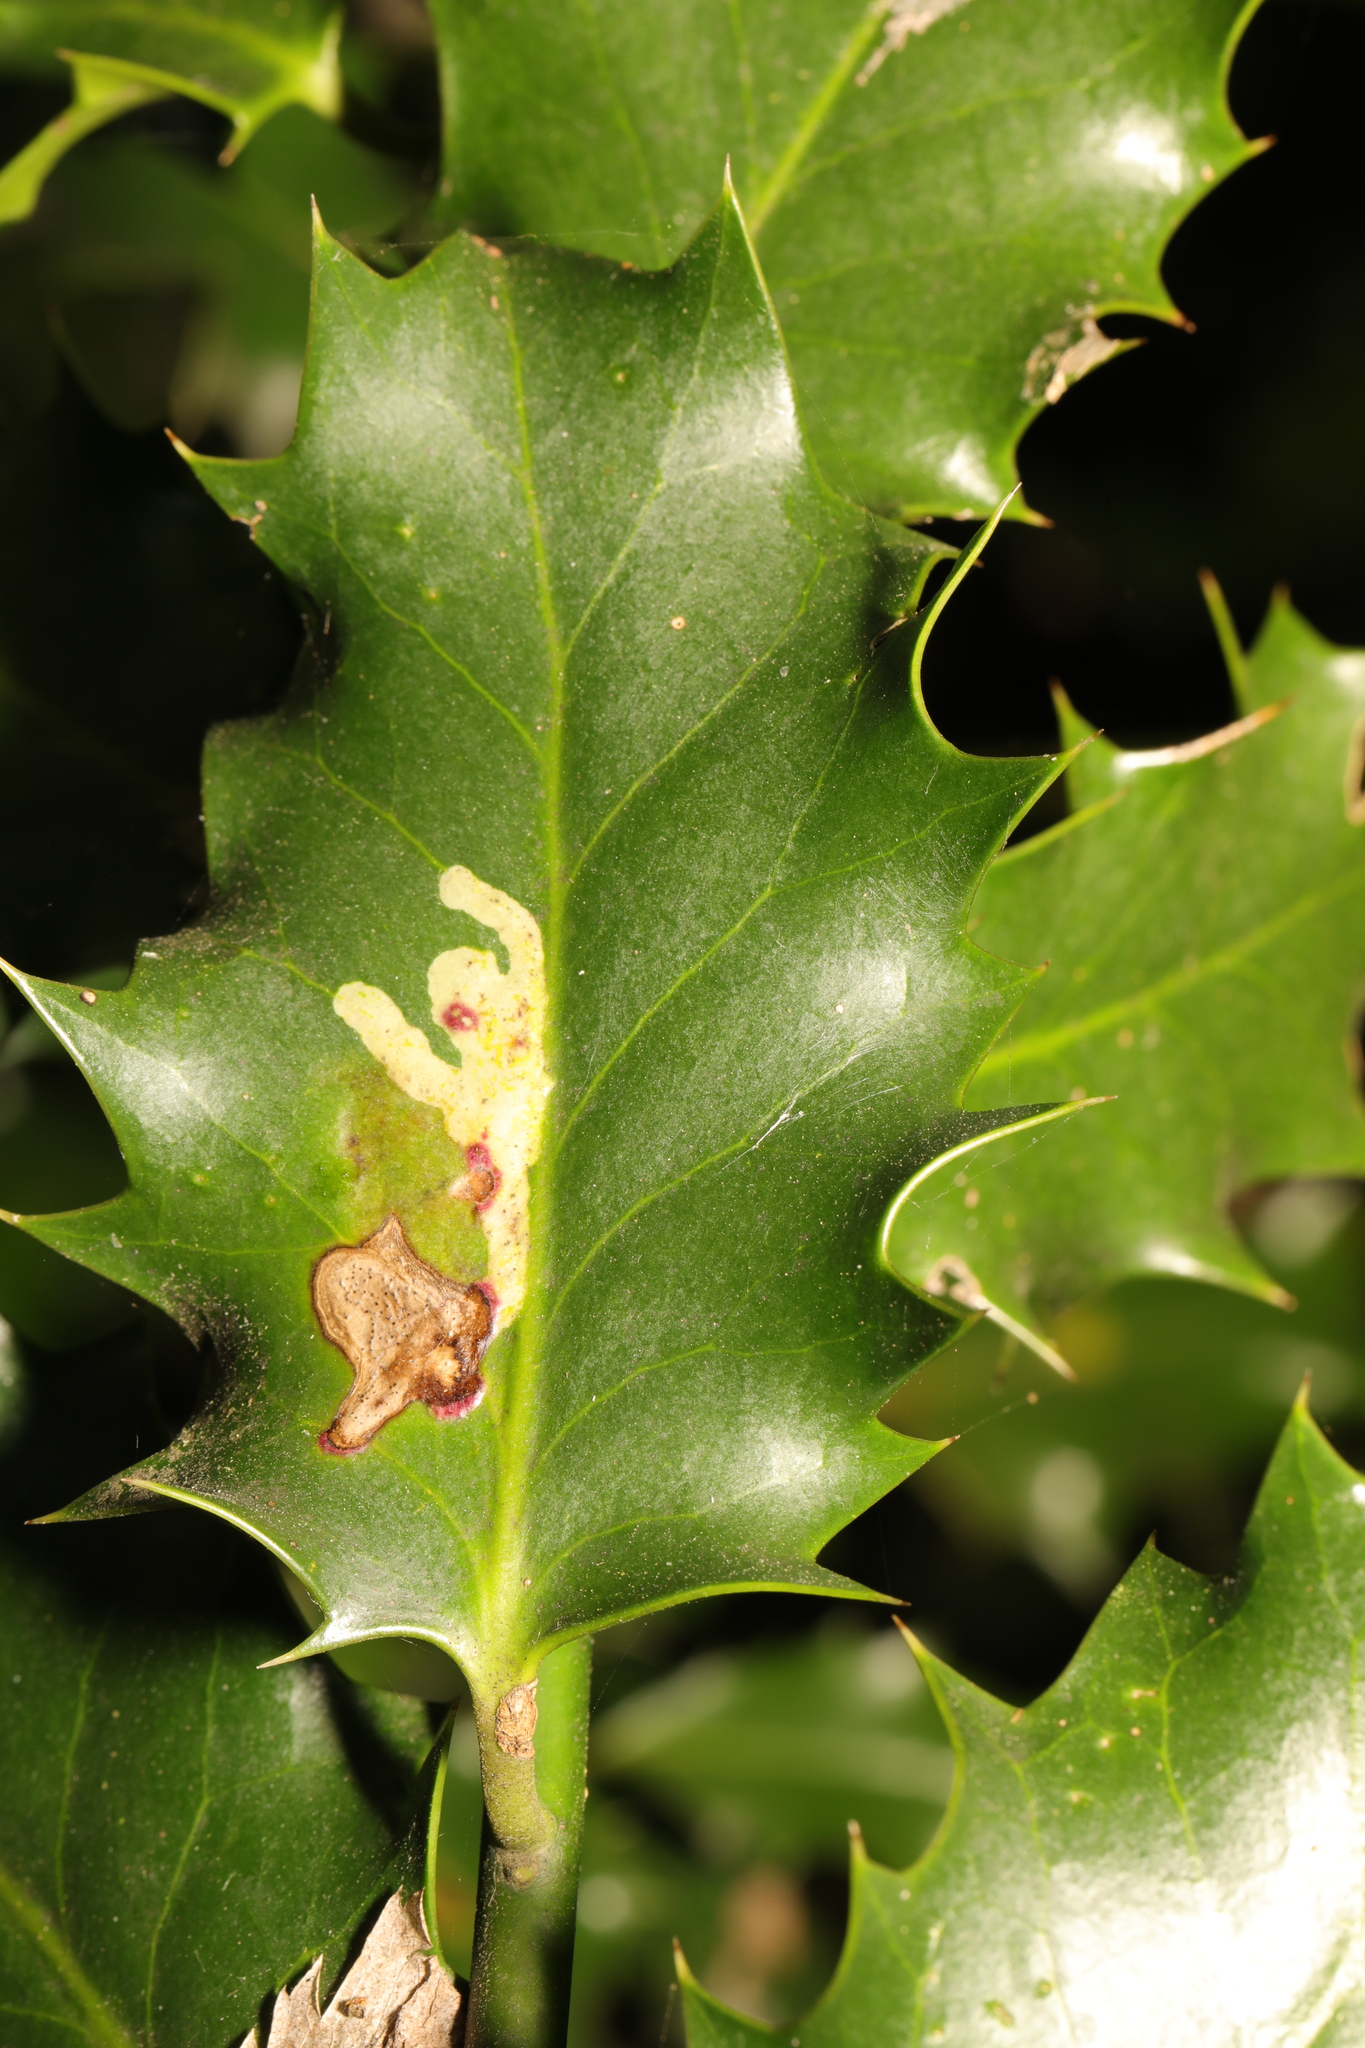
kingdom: Animalia
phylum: Arthropoda
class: Insecta
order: Diptera
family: Agromyzidae
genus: Phytomyza
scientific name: Phytomyza ilicis
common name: Holly leafminer
